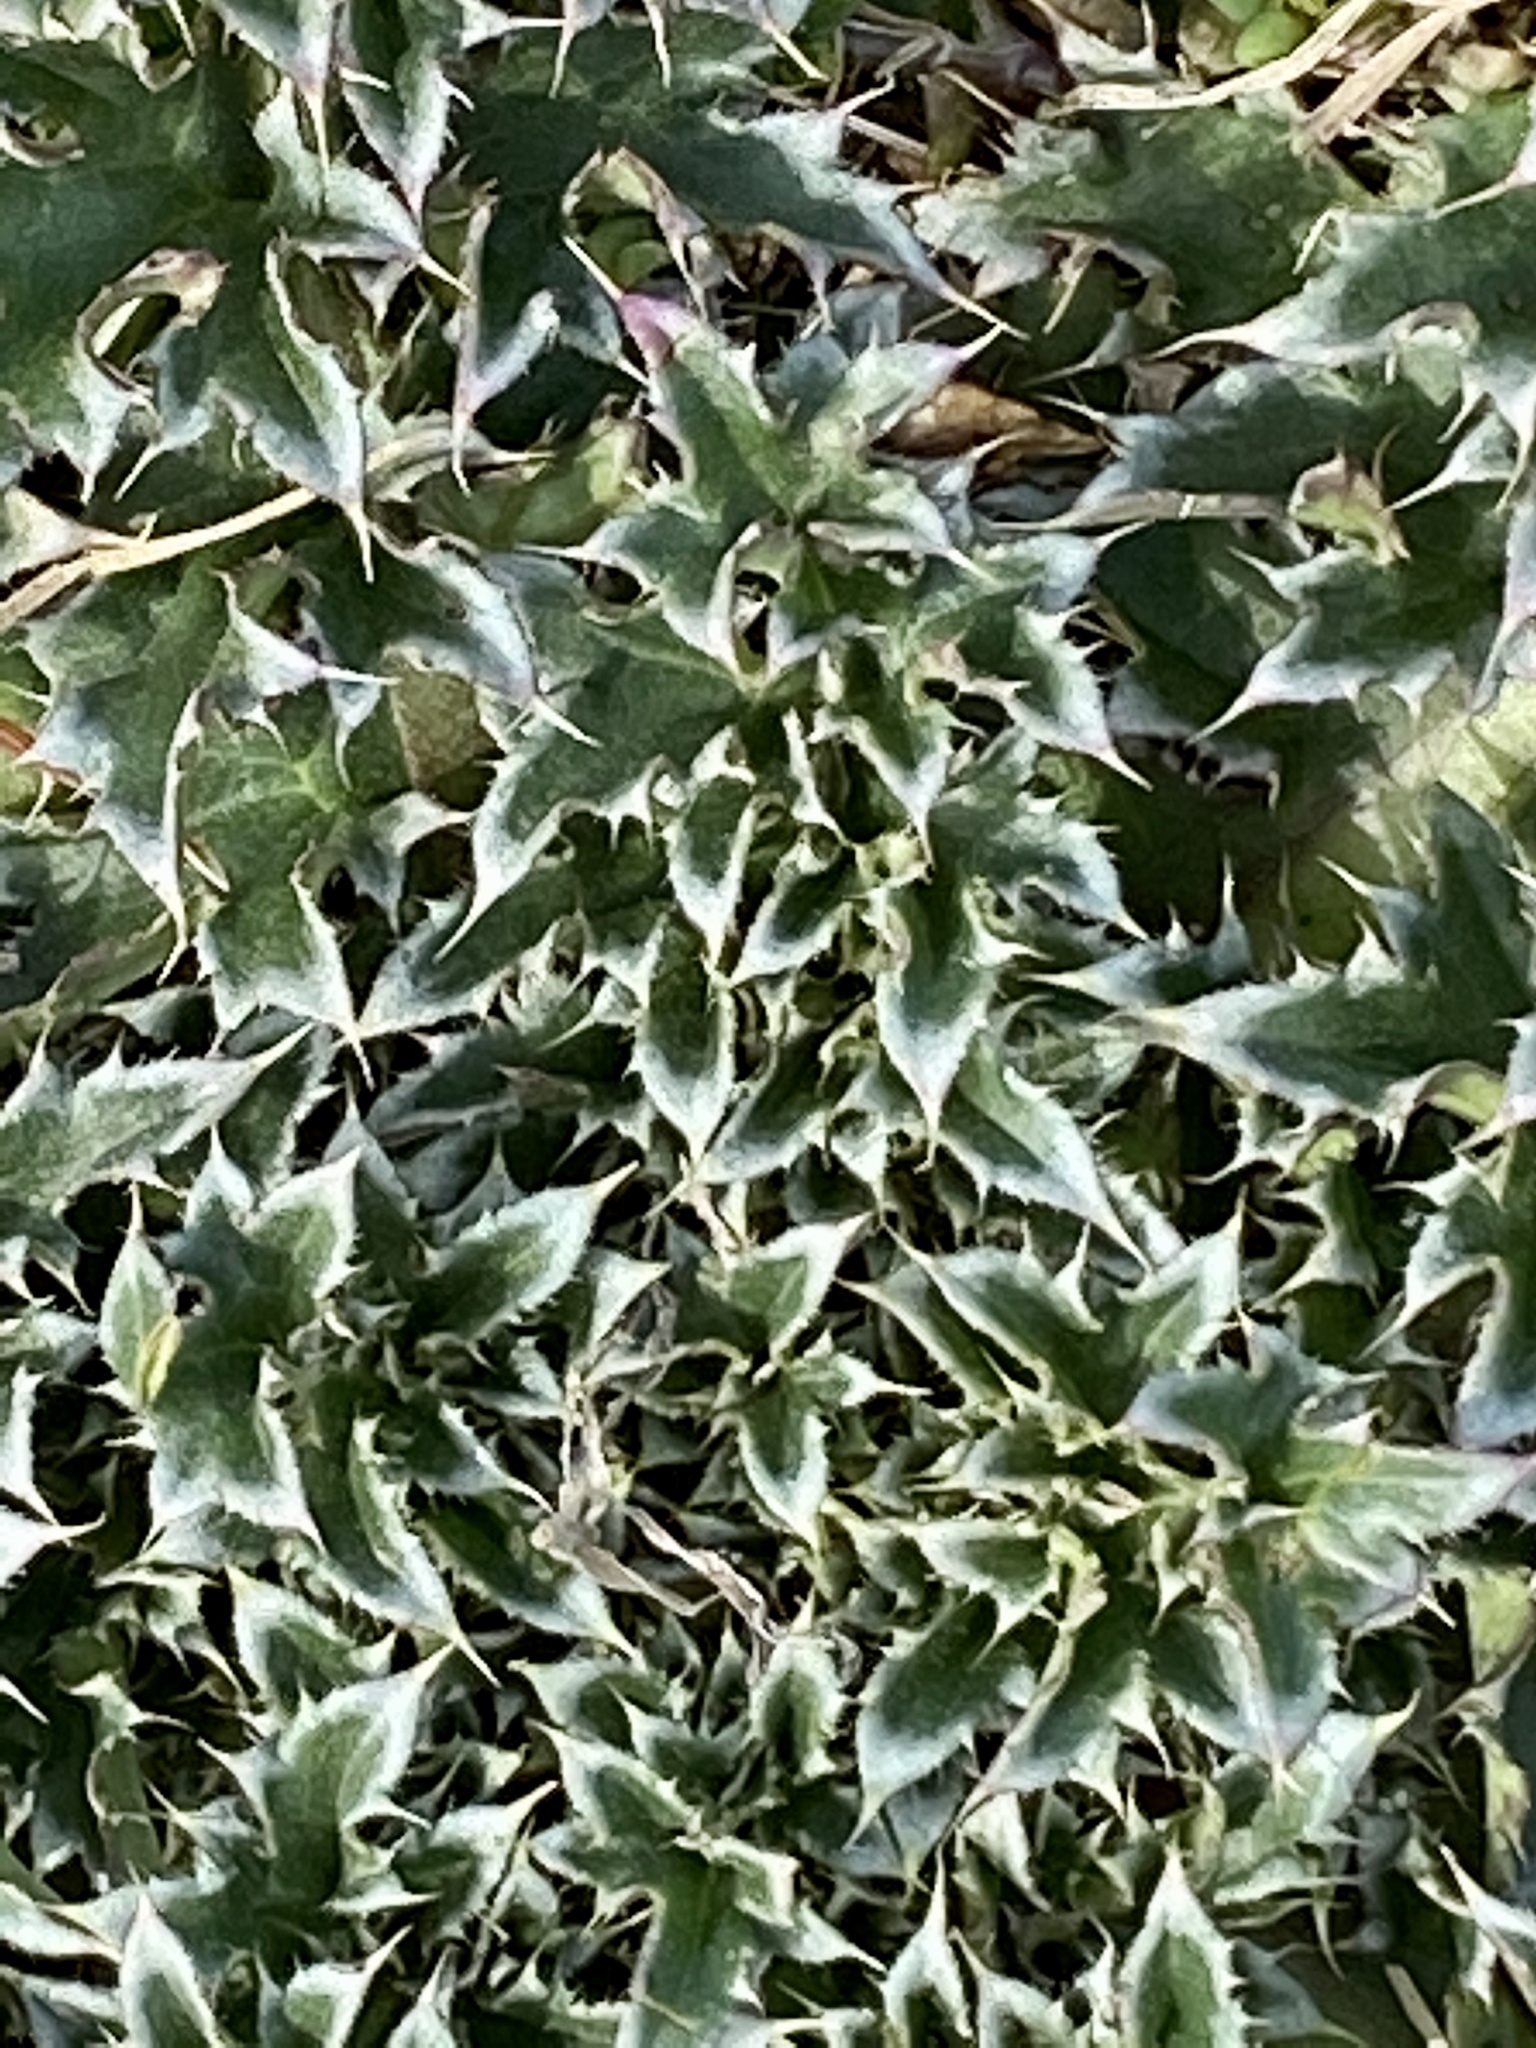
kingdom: Plantae
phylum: Tracheophyta
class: Magnoliopsida
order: Asterales
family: Asteraceae
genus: Carduus
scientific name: Carduus nutans
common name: Musk thistle
